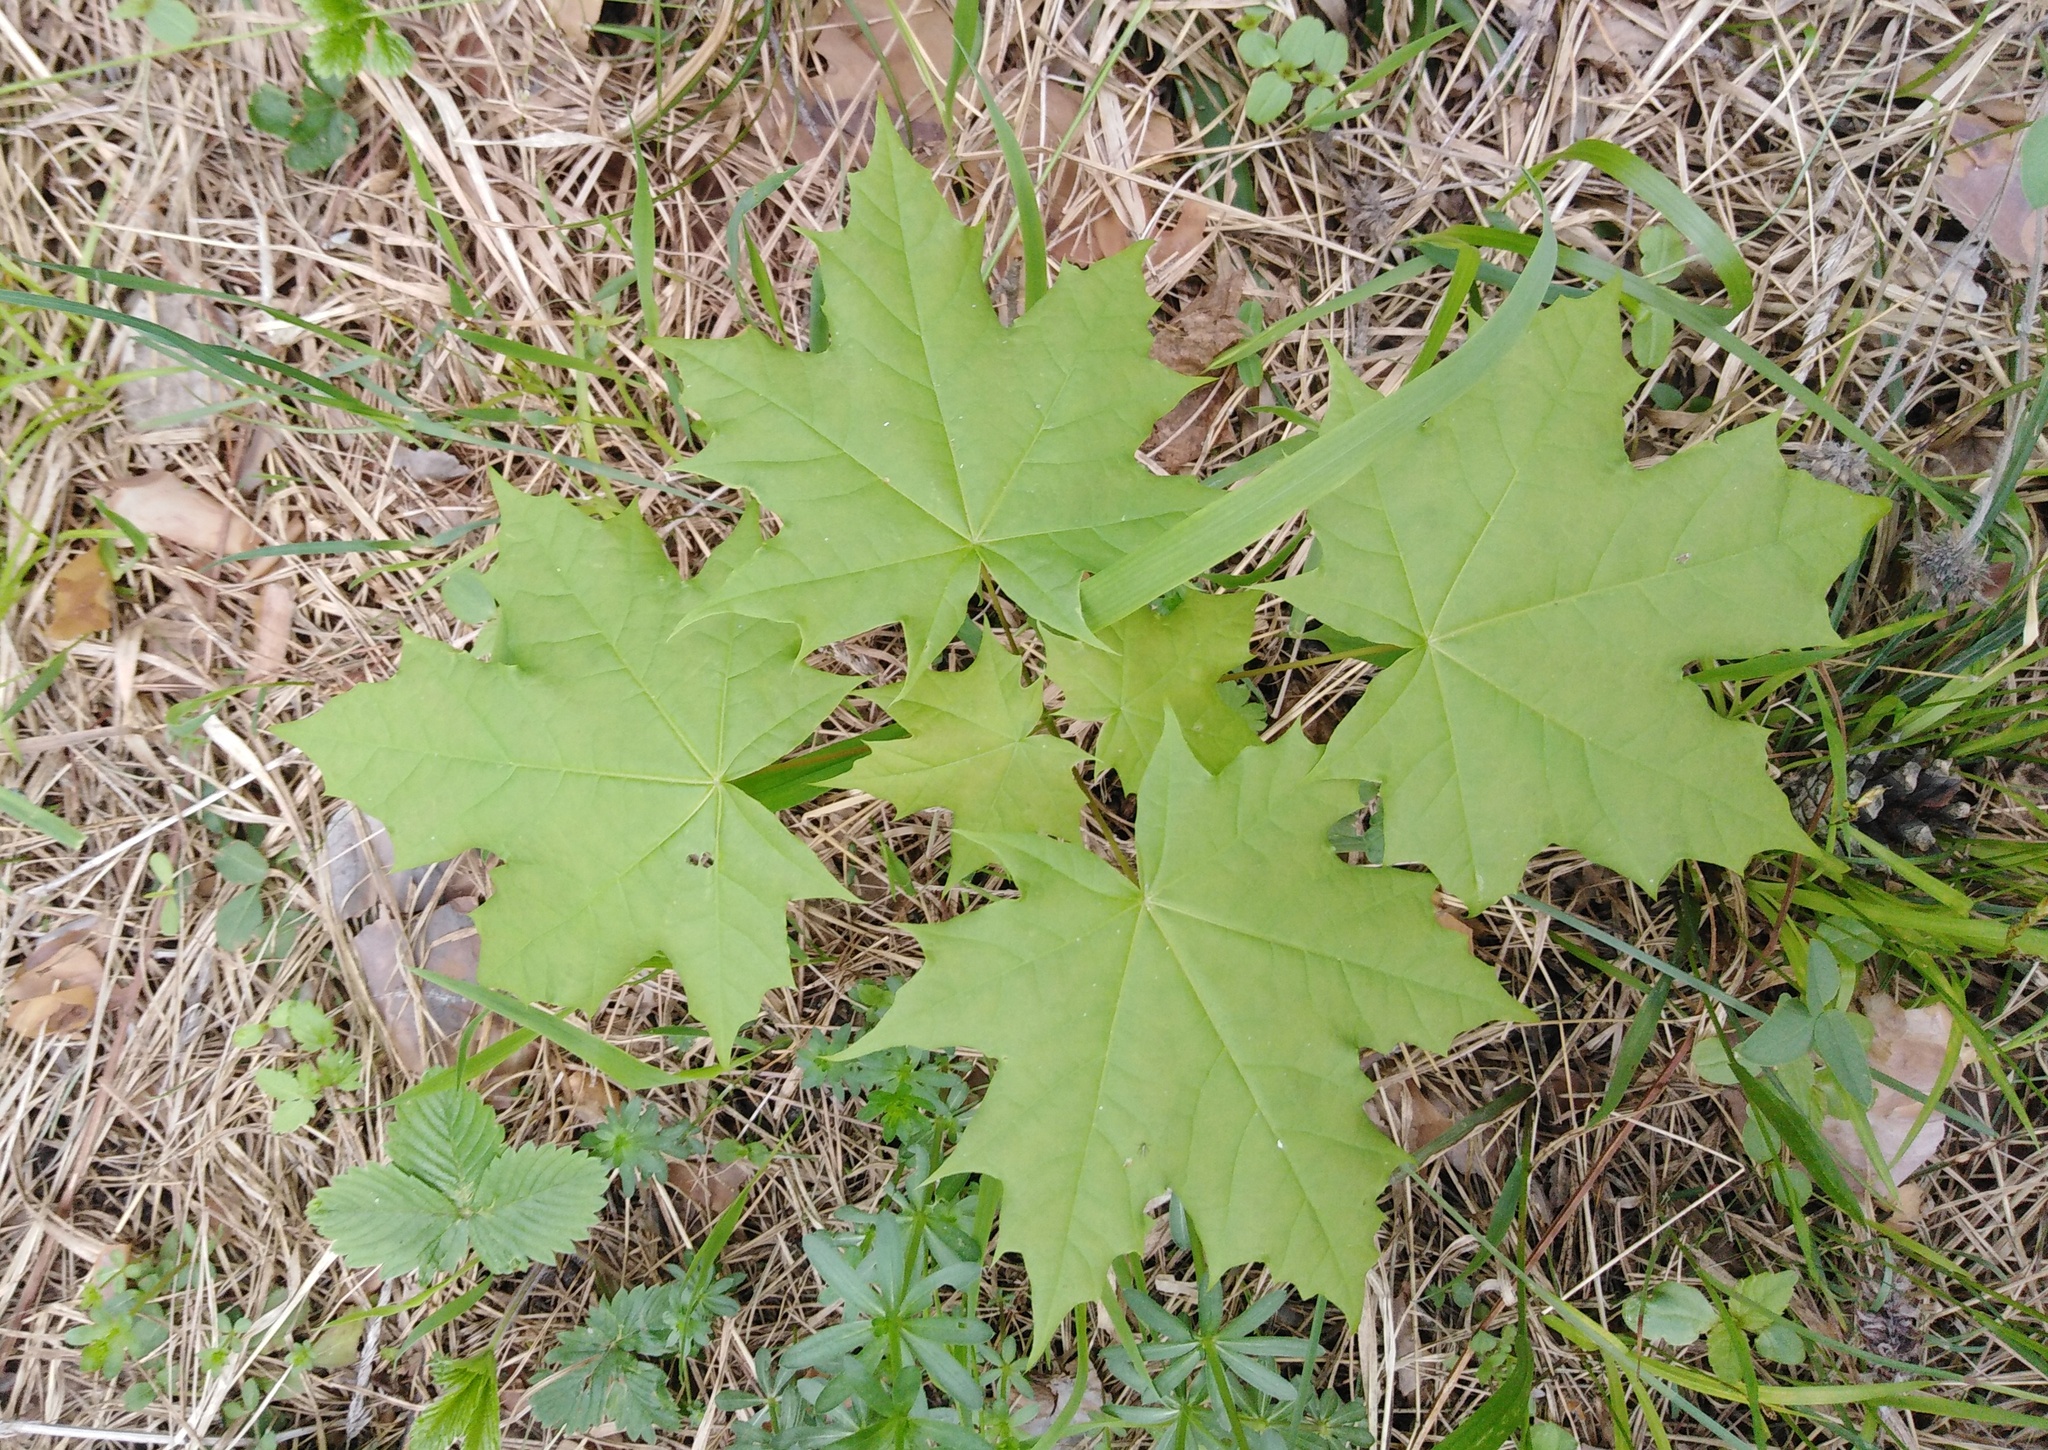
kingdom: Plantae
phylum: Tracheophyta
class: Magnoliopsida
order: Sapindales
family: Sapindaceae
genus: Acer
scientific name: Acer platanoides
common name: Norway maple
